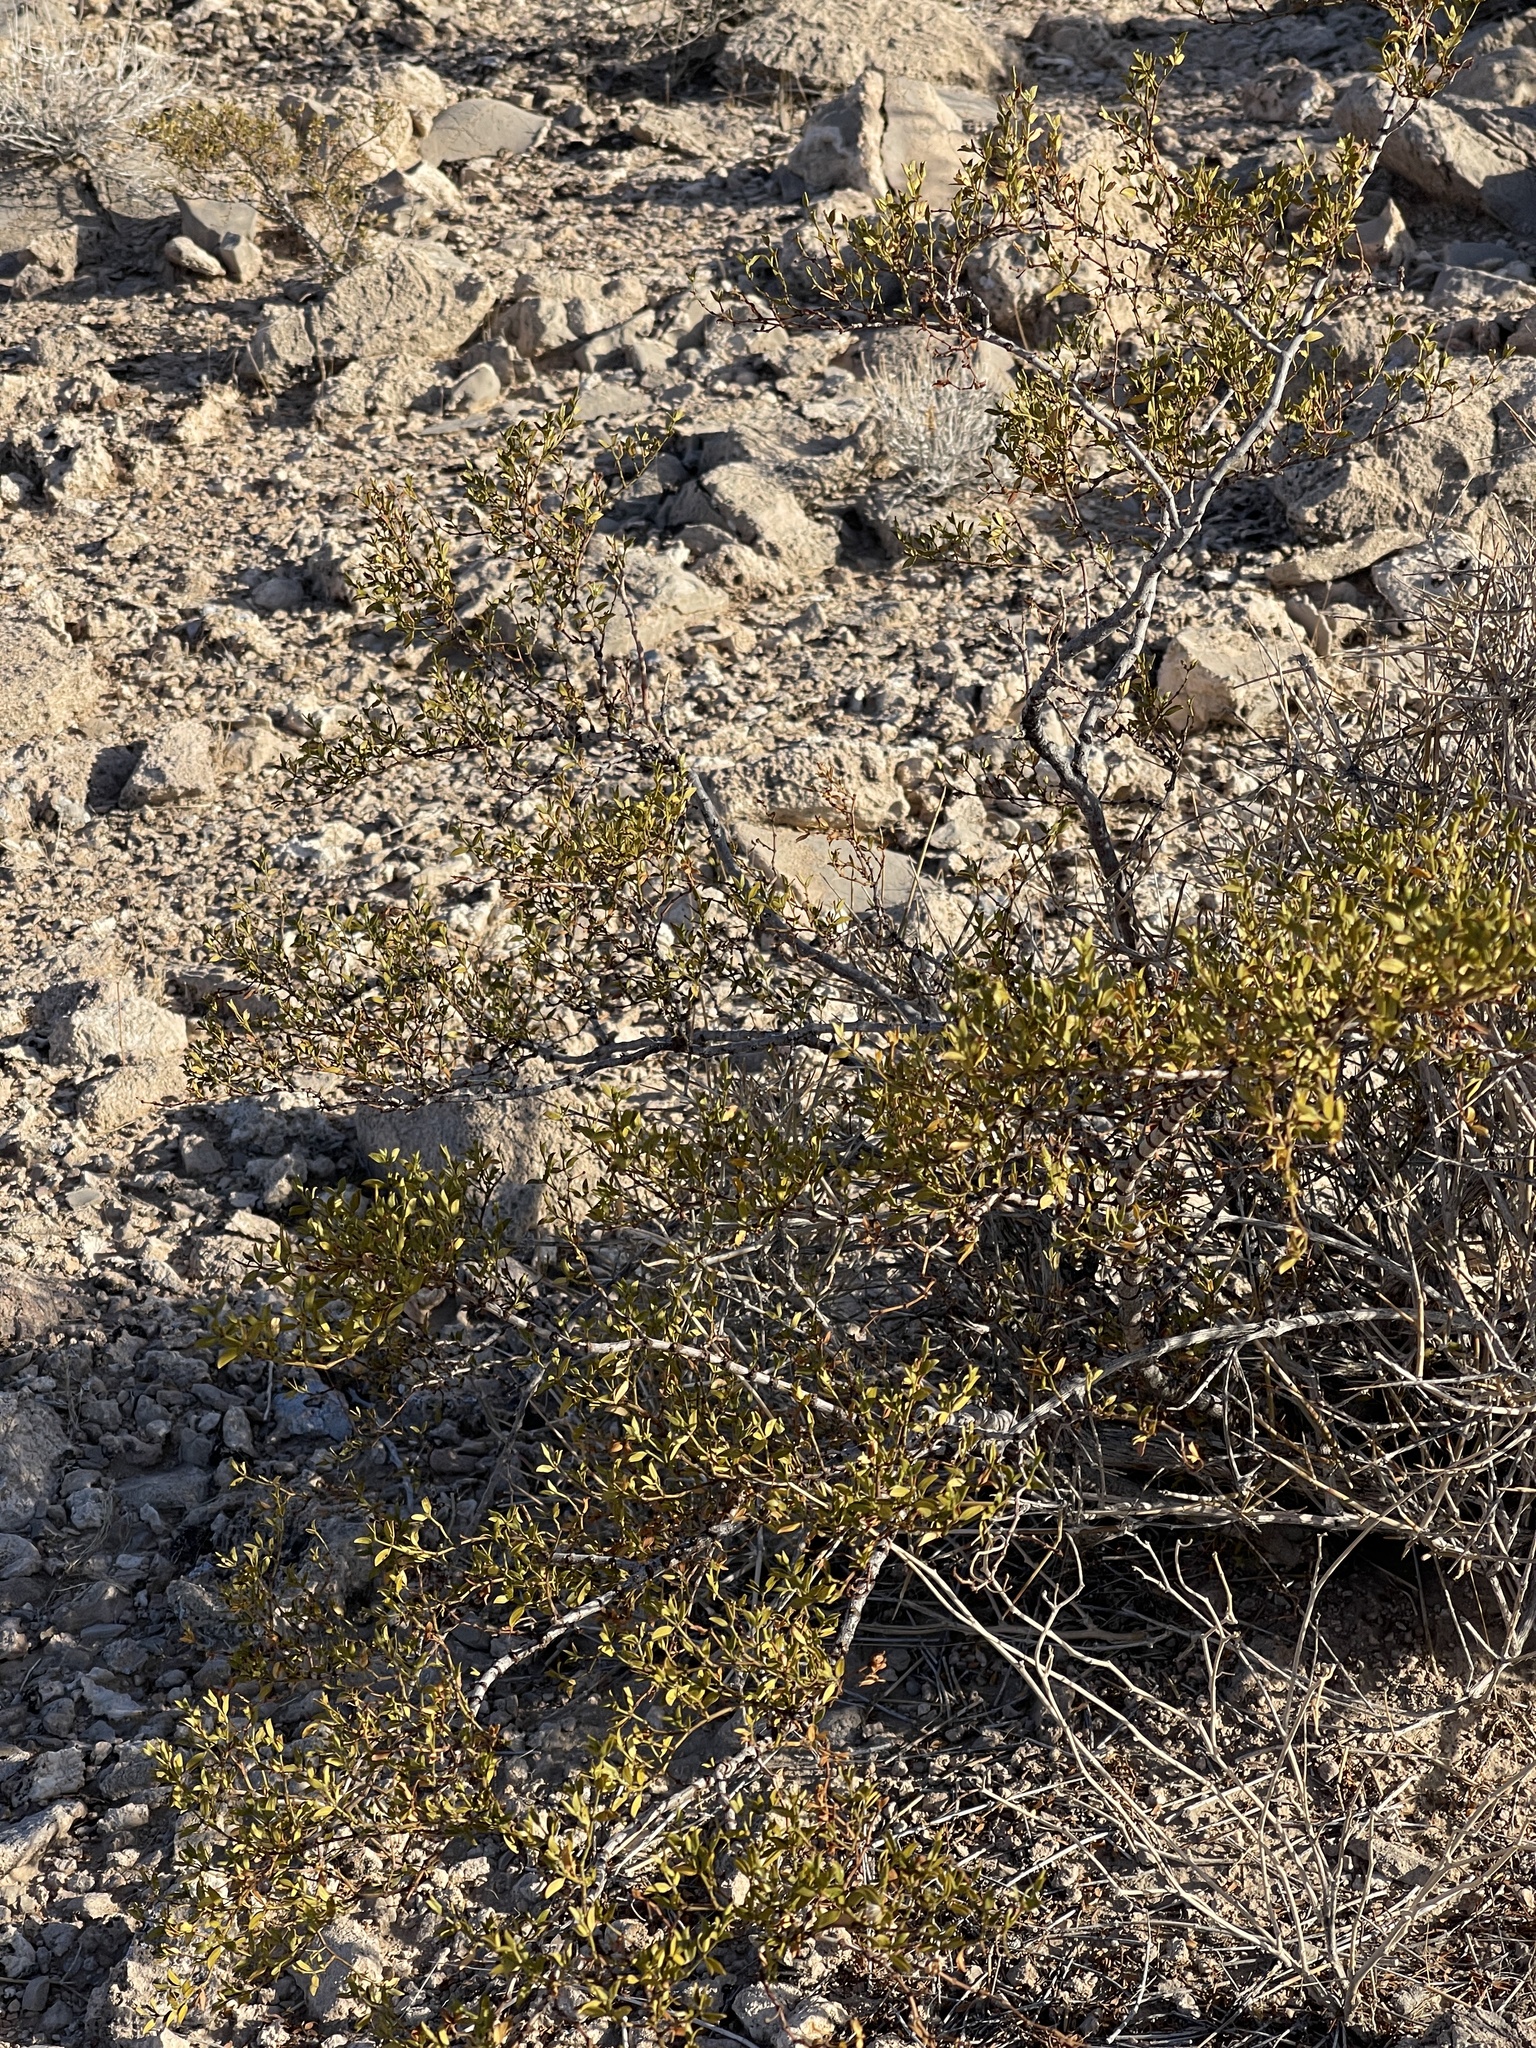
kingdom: Plantae
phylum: Tracheophyta
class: Magnoliopsida
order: Zygophyllales
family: Zygophyllaceae
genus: Larrea
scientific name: Larrea tridentata
